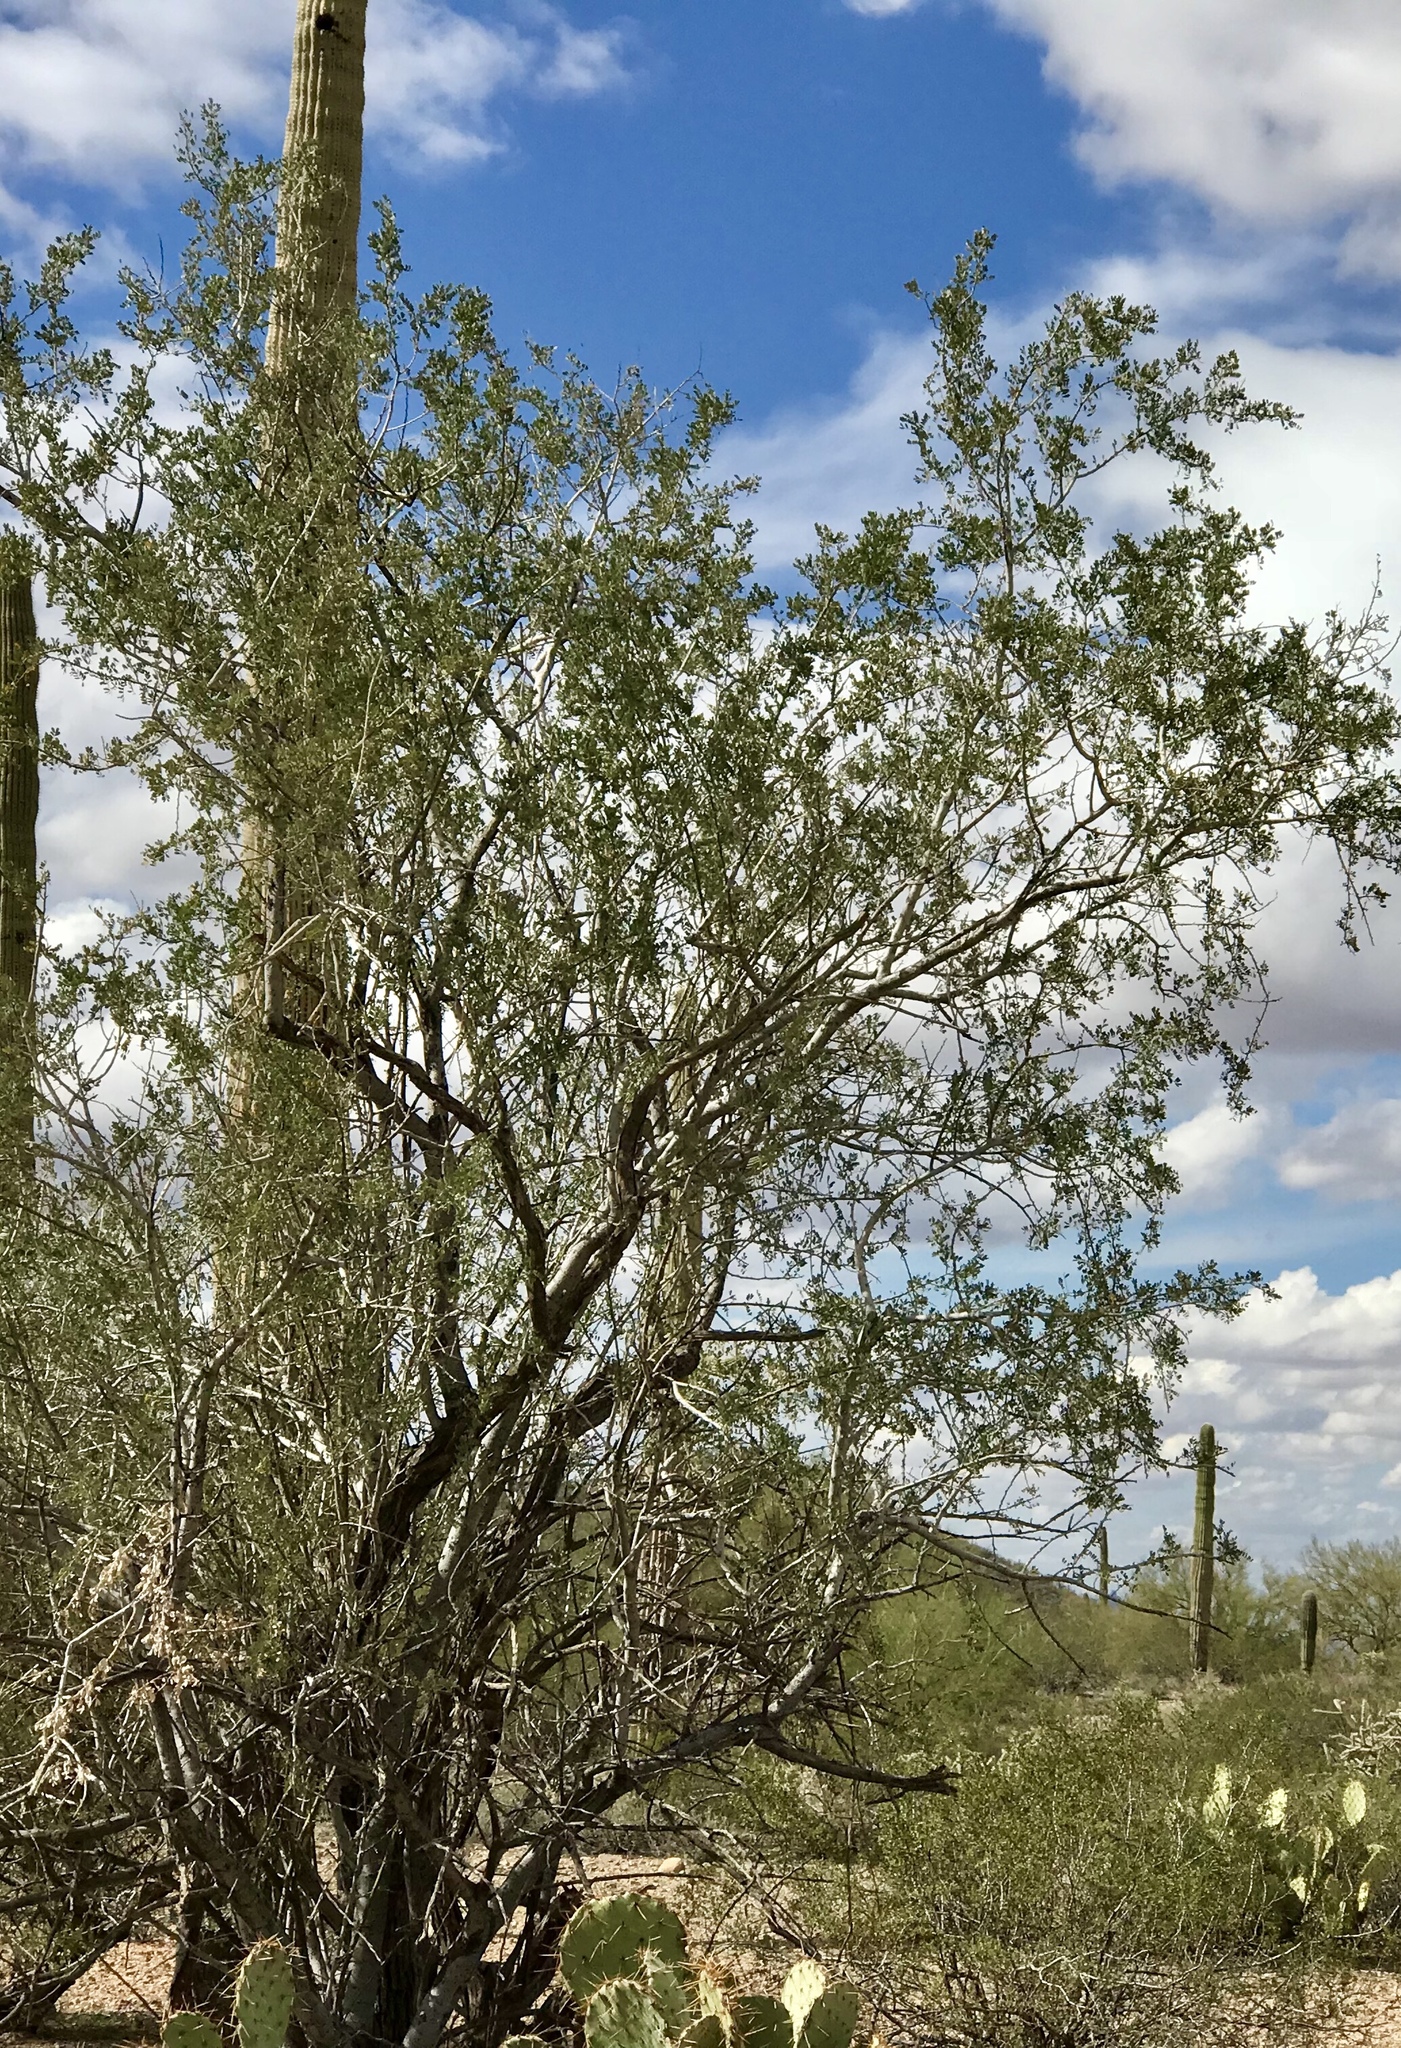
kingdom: Plantae
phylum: Tracheophyta
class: Magnoliopsida
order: Fabales
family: Fabaceae
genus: Olneya
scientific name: Olneya tesota
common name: Desert ironwood
